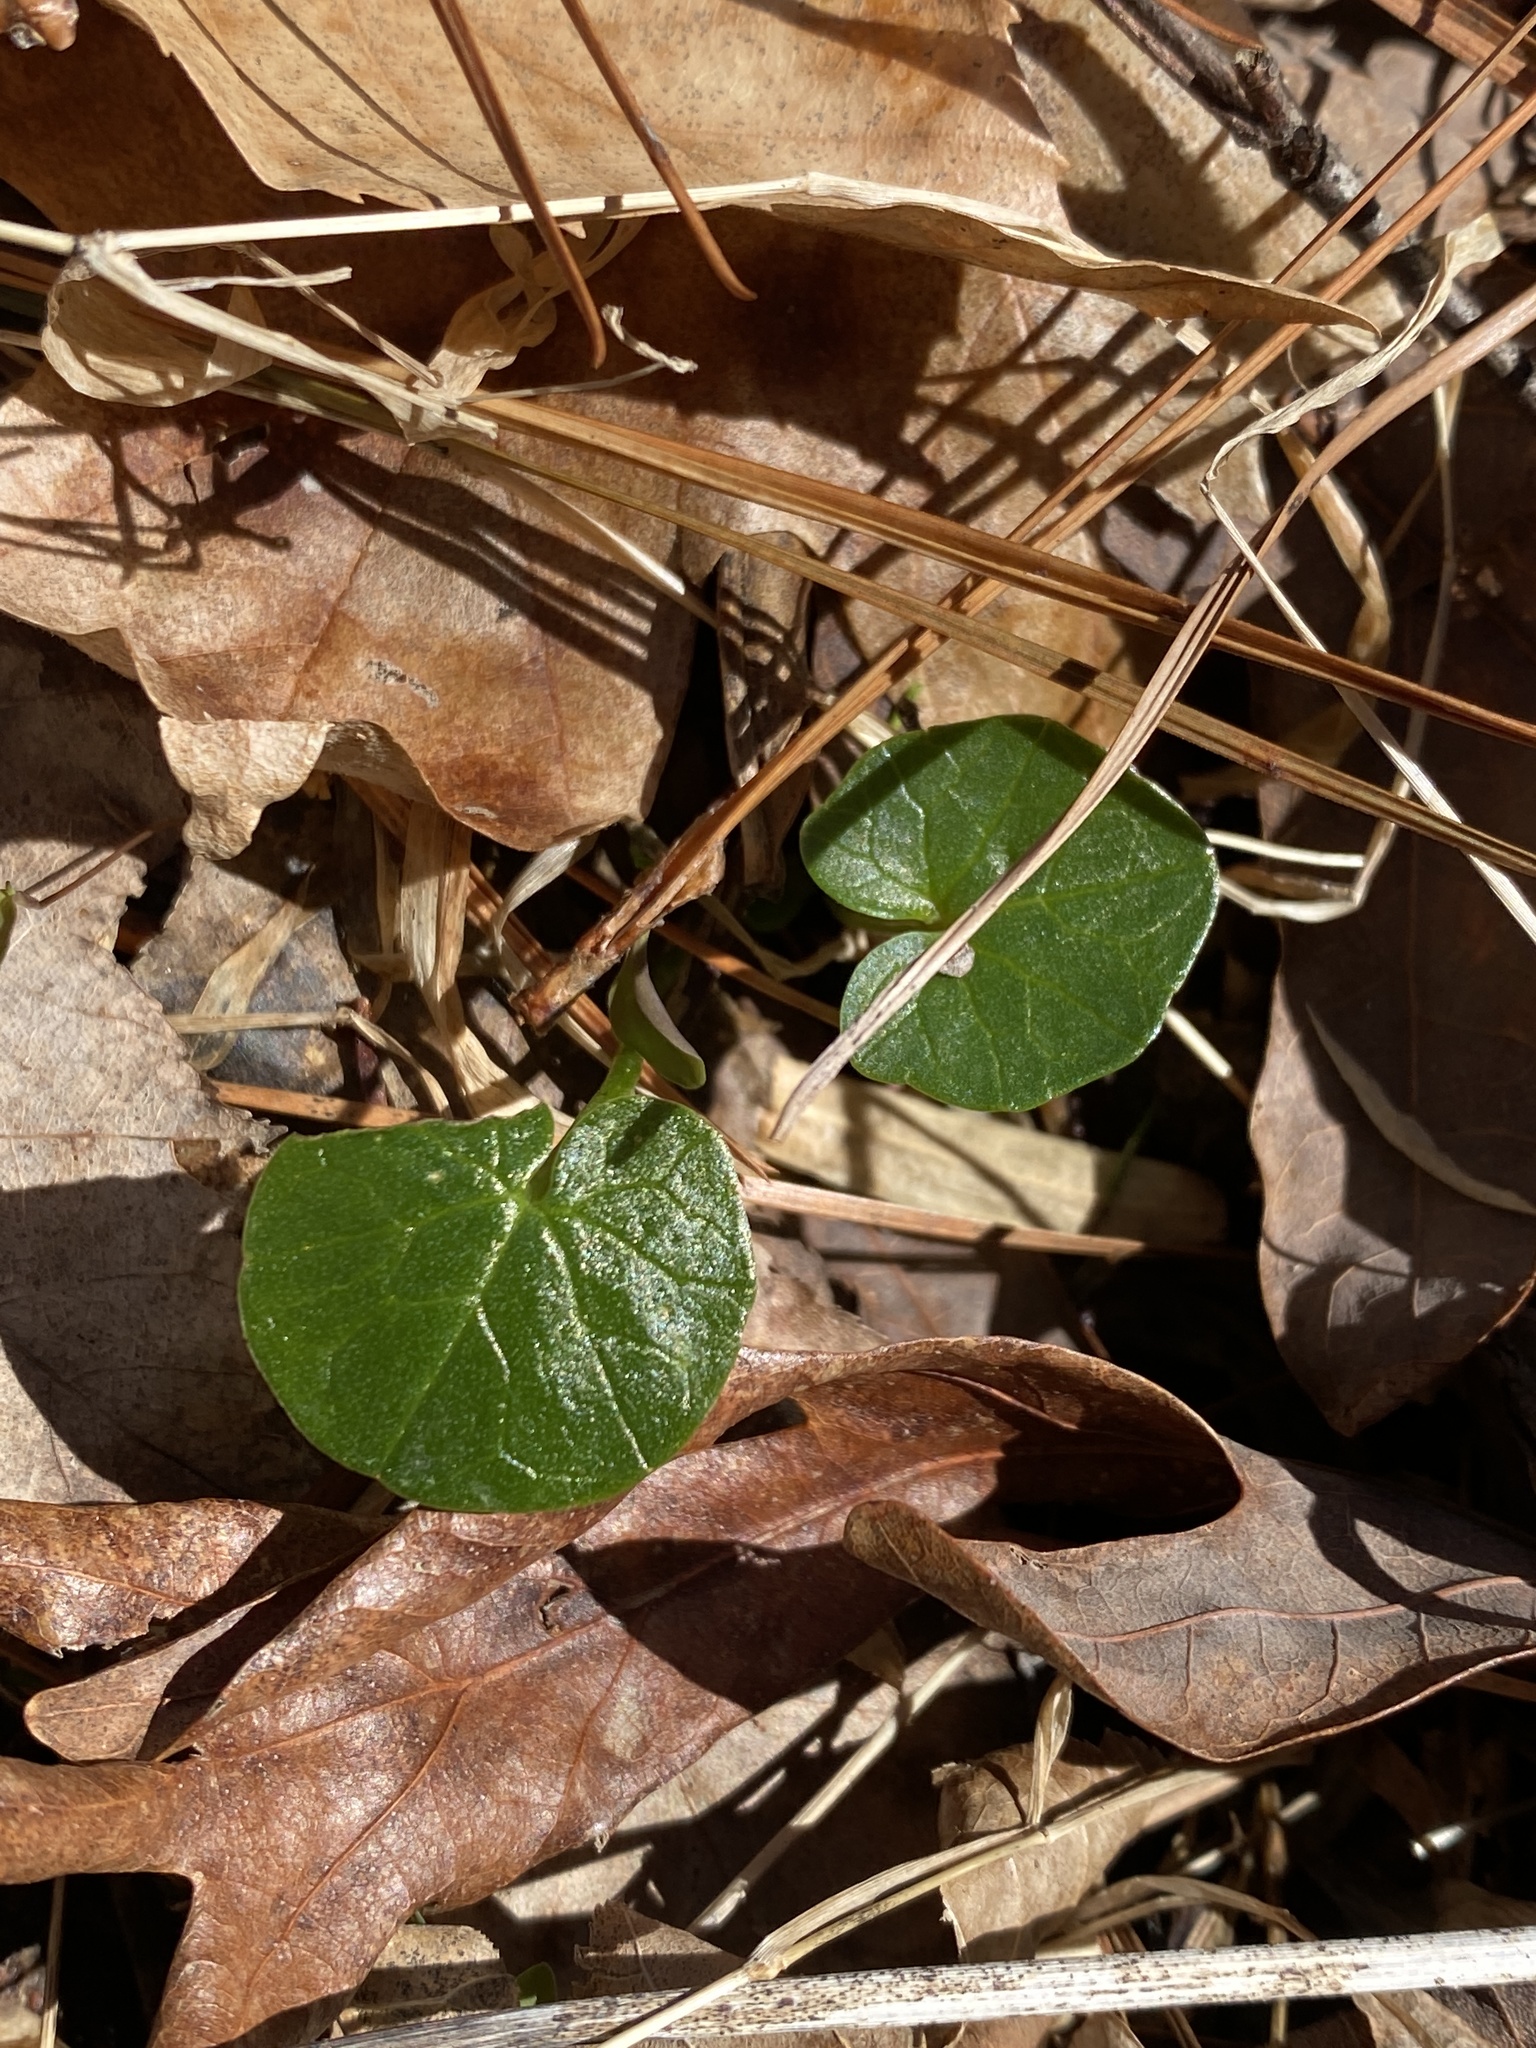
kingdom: Plantae
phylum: Tracheophyta
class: Magnoliopsida
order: Ranunculales
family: Ranunculaceae
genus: Ficaria
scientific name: Ficaria verna
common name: Lesser celandine
